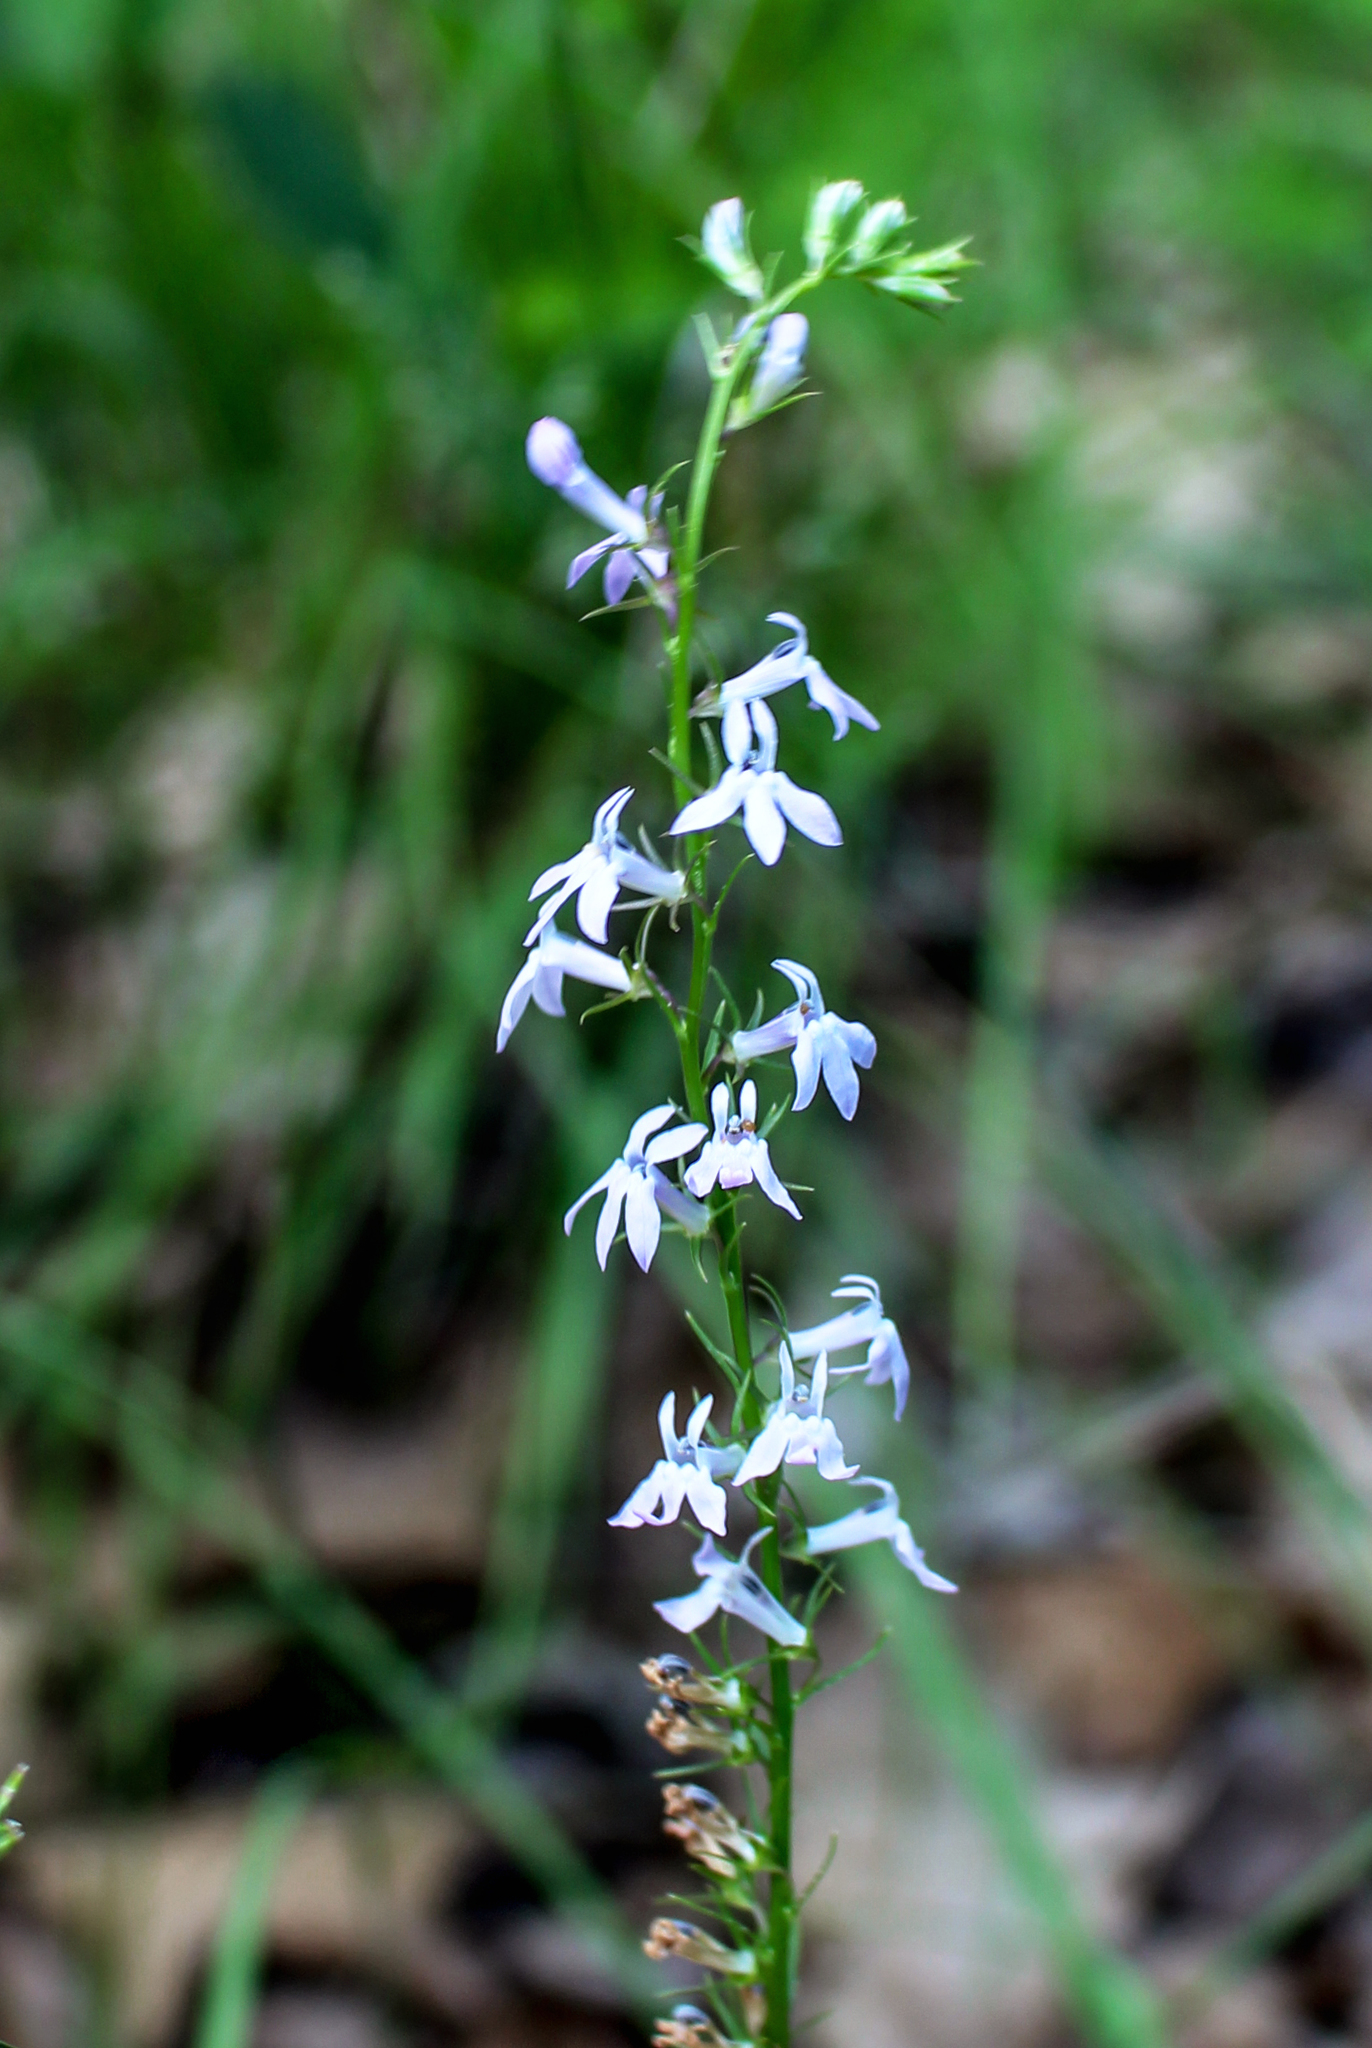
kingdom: Plantae
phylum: Tracheophyta
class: Magnoliopsida
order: Asterales
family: Campanulaceae
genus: Lobelia
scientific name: Lobelia spicata
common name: Pale-spike lobelia
